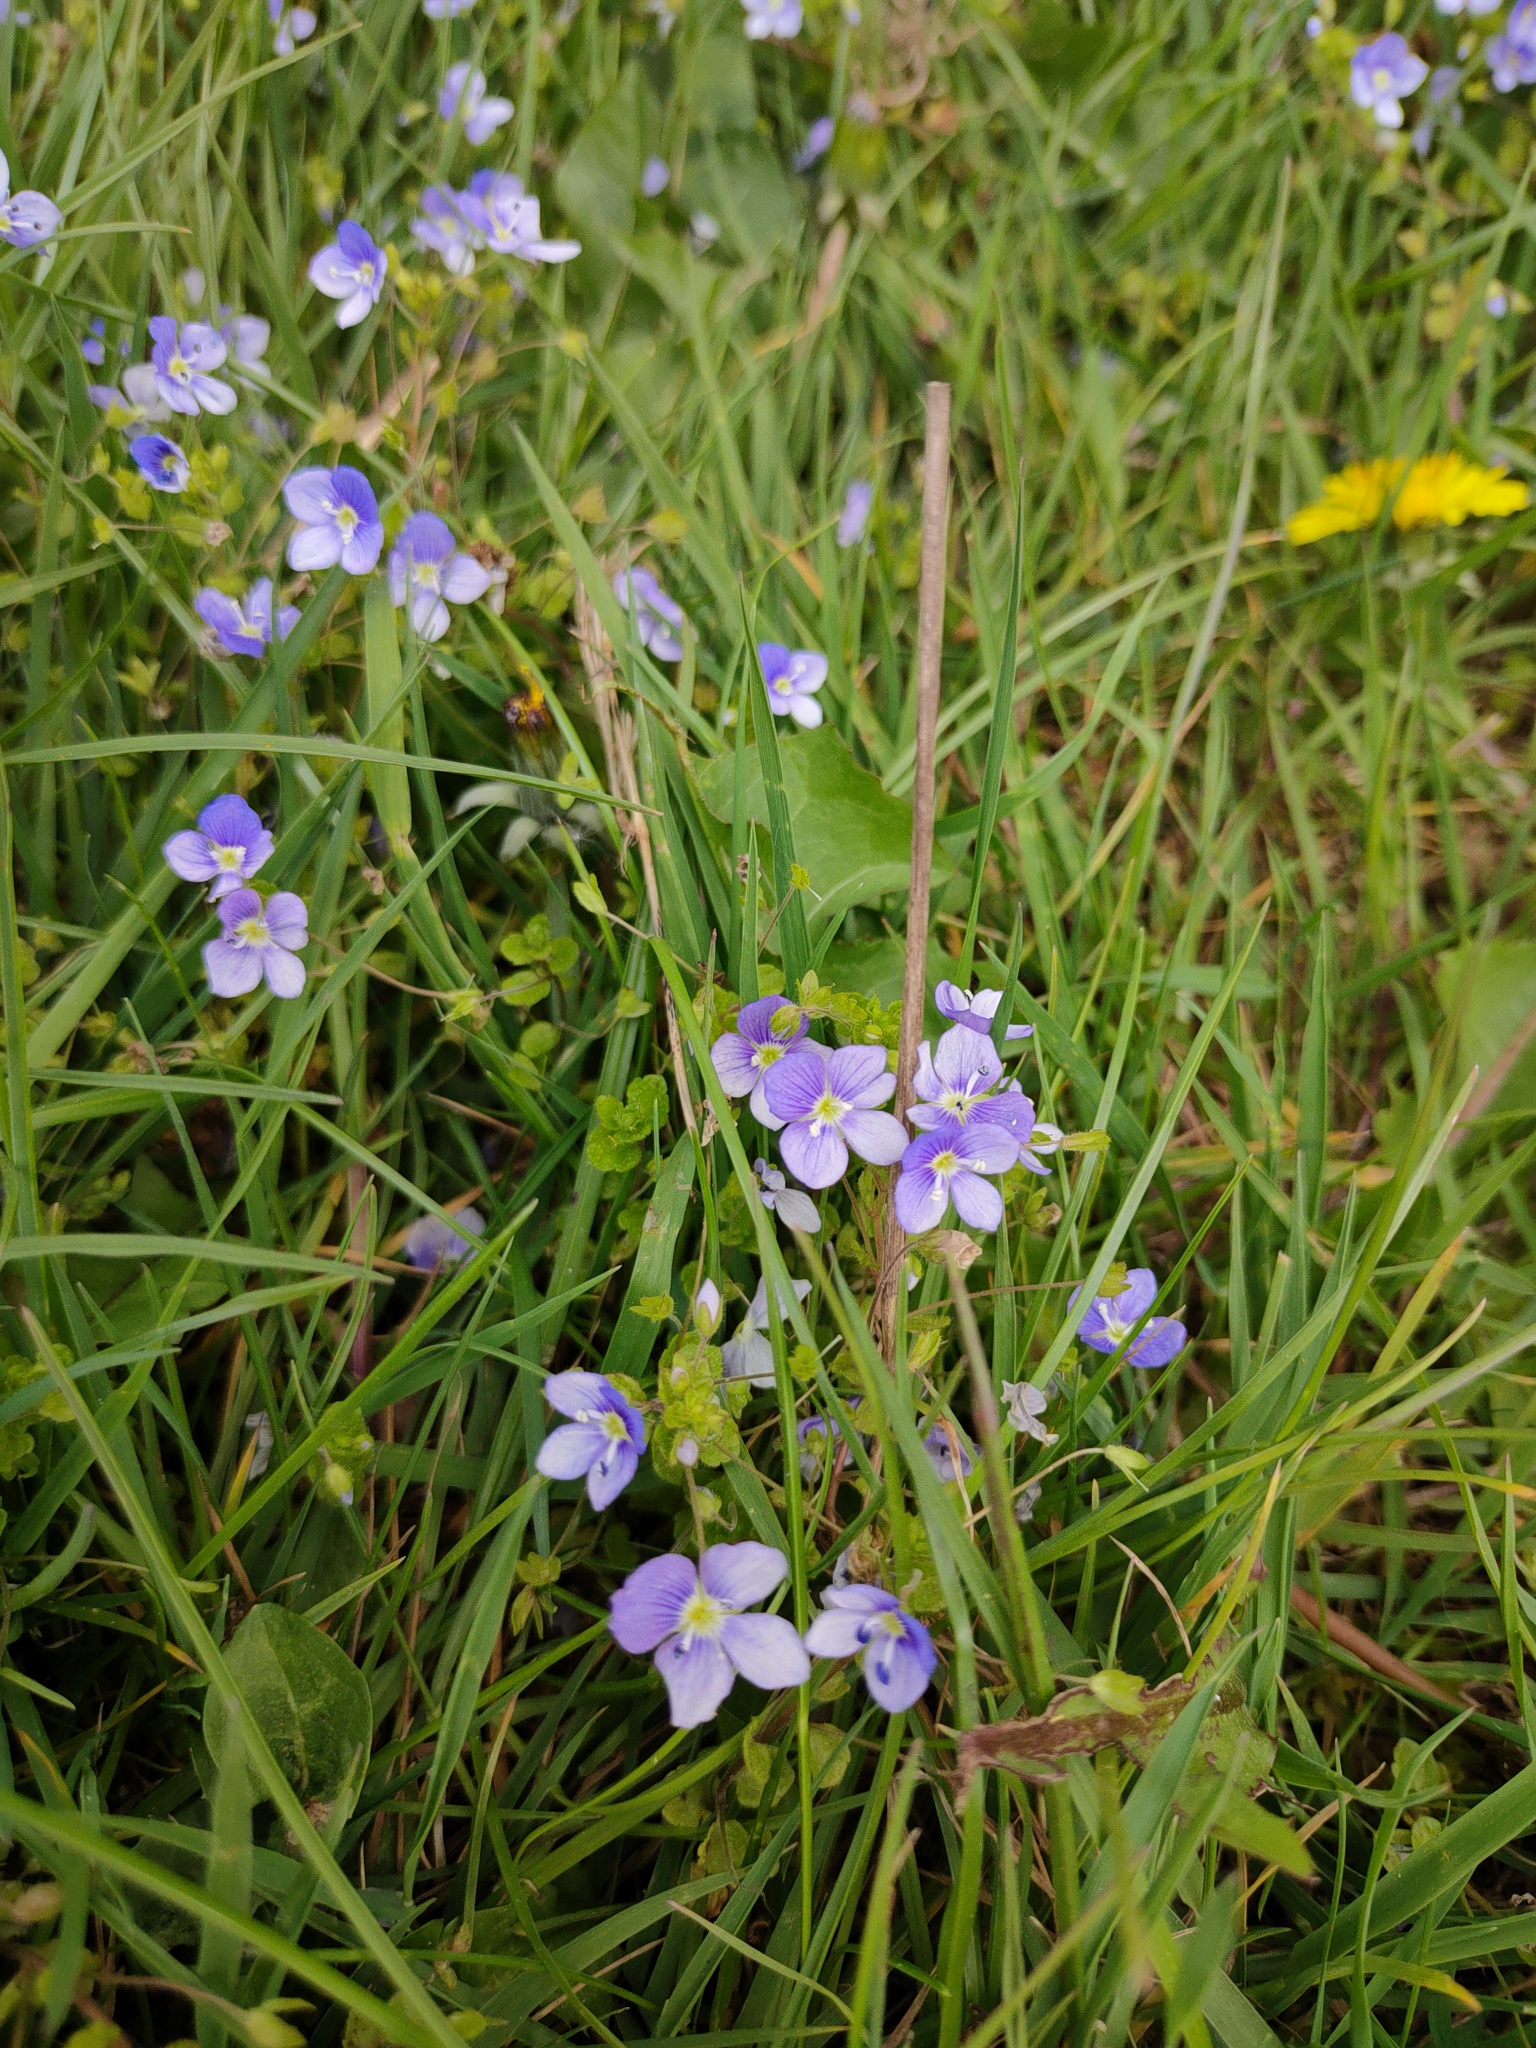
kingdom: Plantae
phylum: Tracheophyta
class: Magnoliopsida
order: Lamiales
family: Plantaginaceae
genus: Veronica
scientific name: Veronica filiformis
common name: Slender speedwell
